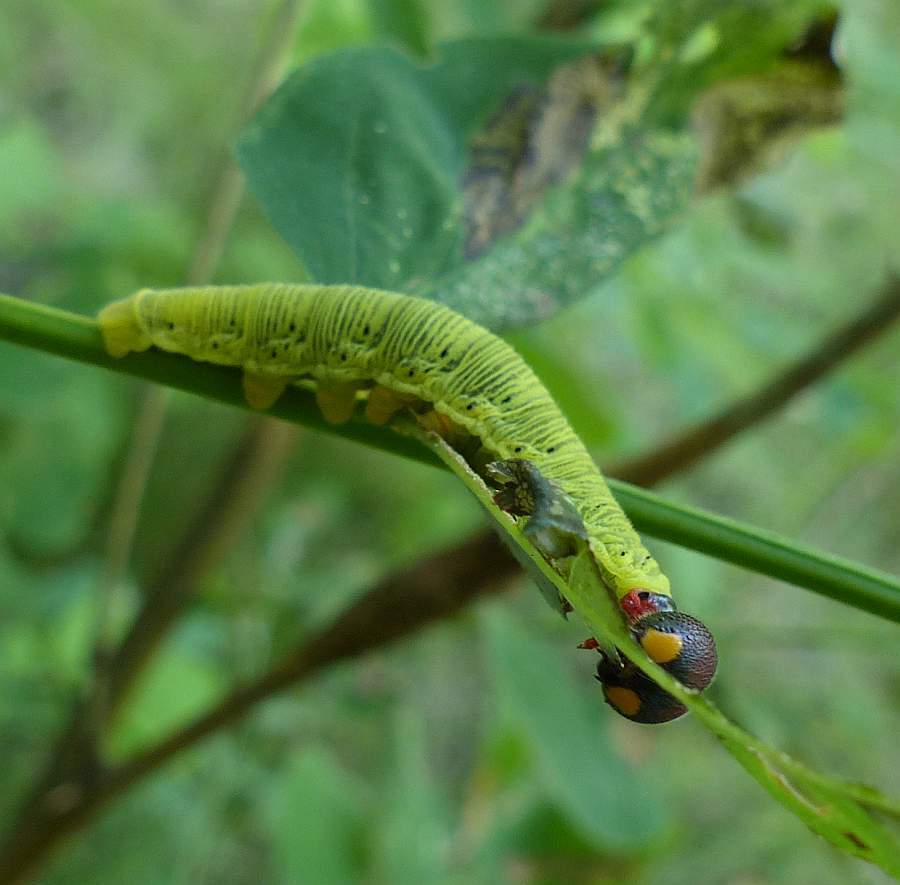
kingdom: Animalia
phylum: Arthropoda
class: Insecta
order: Lepidoptera
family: Hesperiidae
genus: Epargyreus
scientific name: Epargyreus clarus
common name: Silver-spotted skipper
